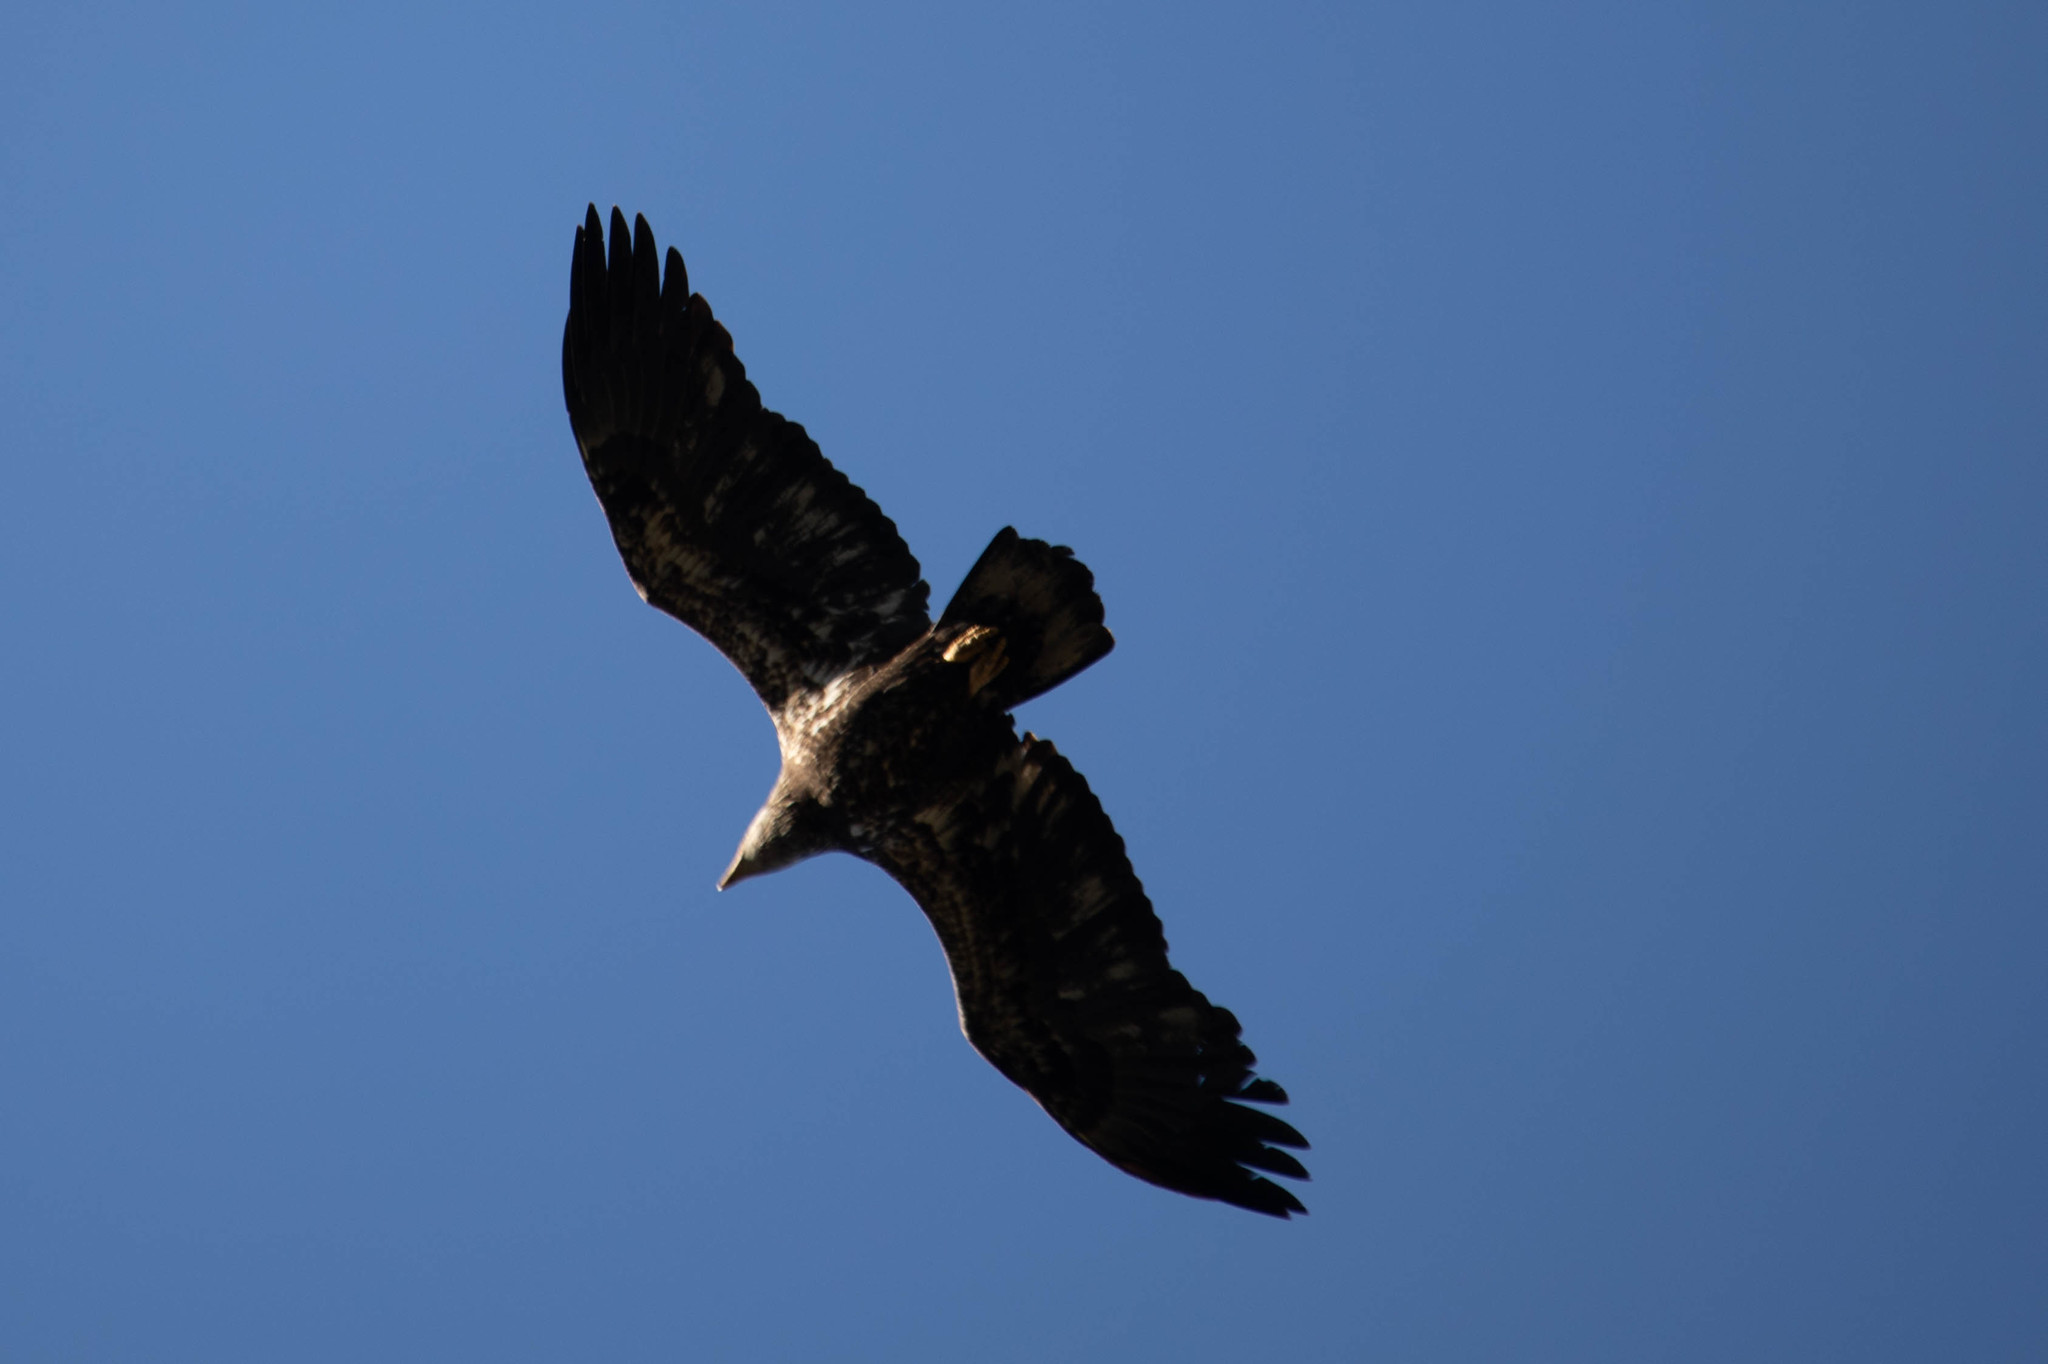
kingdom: Animalia
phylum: Chordata
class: Aves
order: Accipitriformes
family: Accipitridae
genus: Haliaeetus
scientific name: Haliaeetus leucocephalus
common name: Bald eagle
